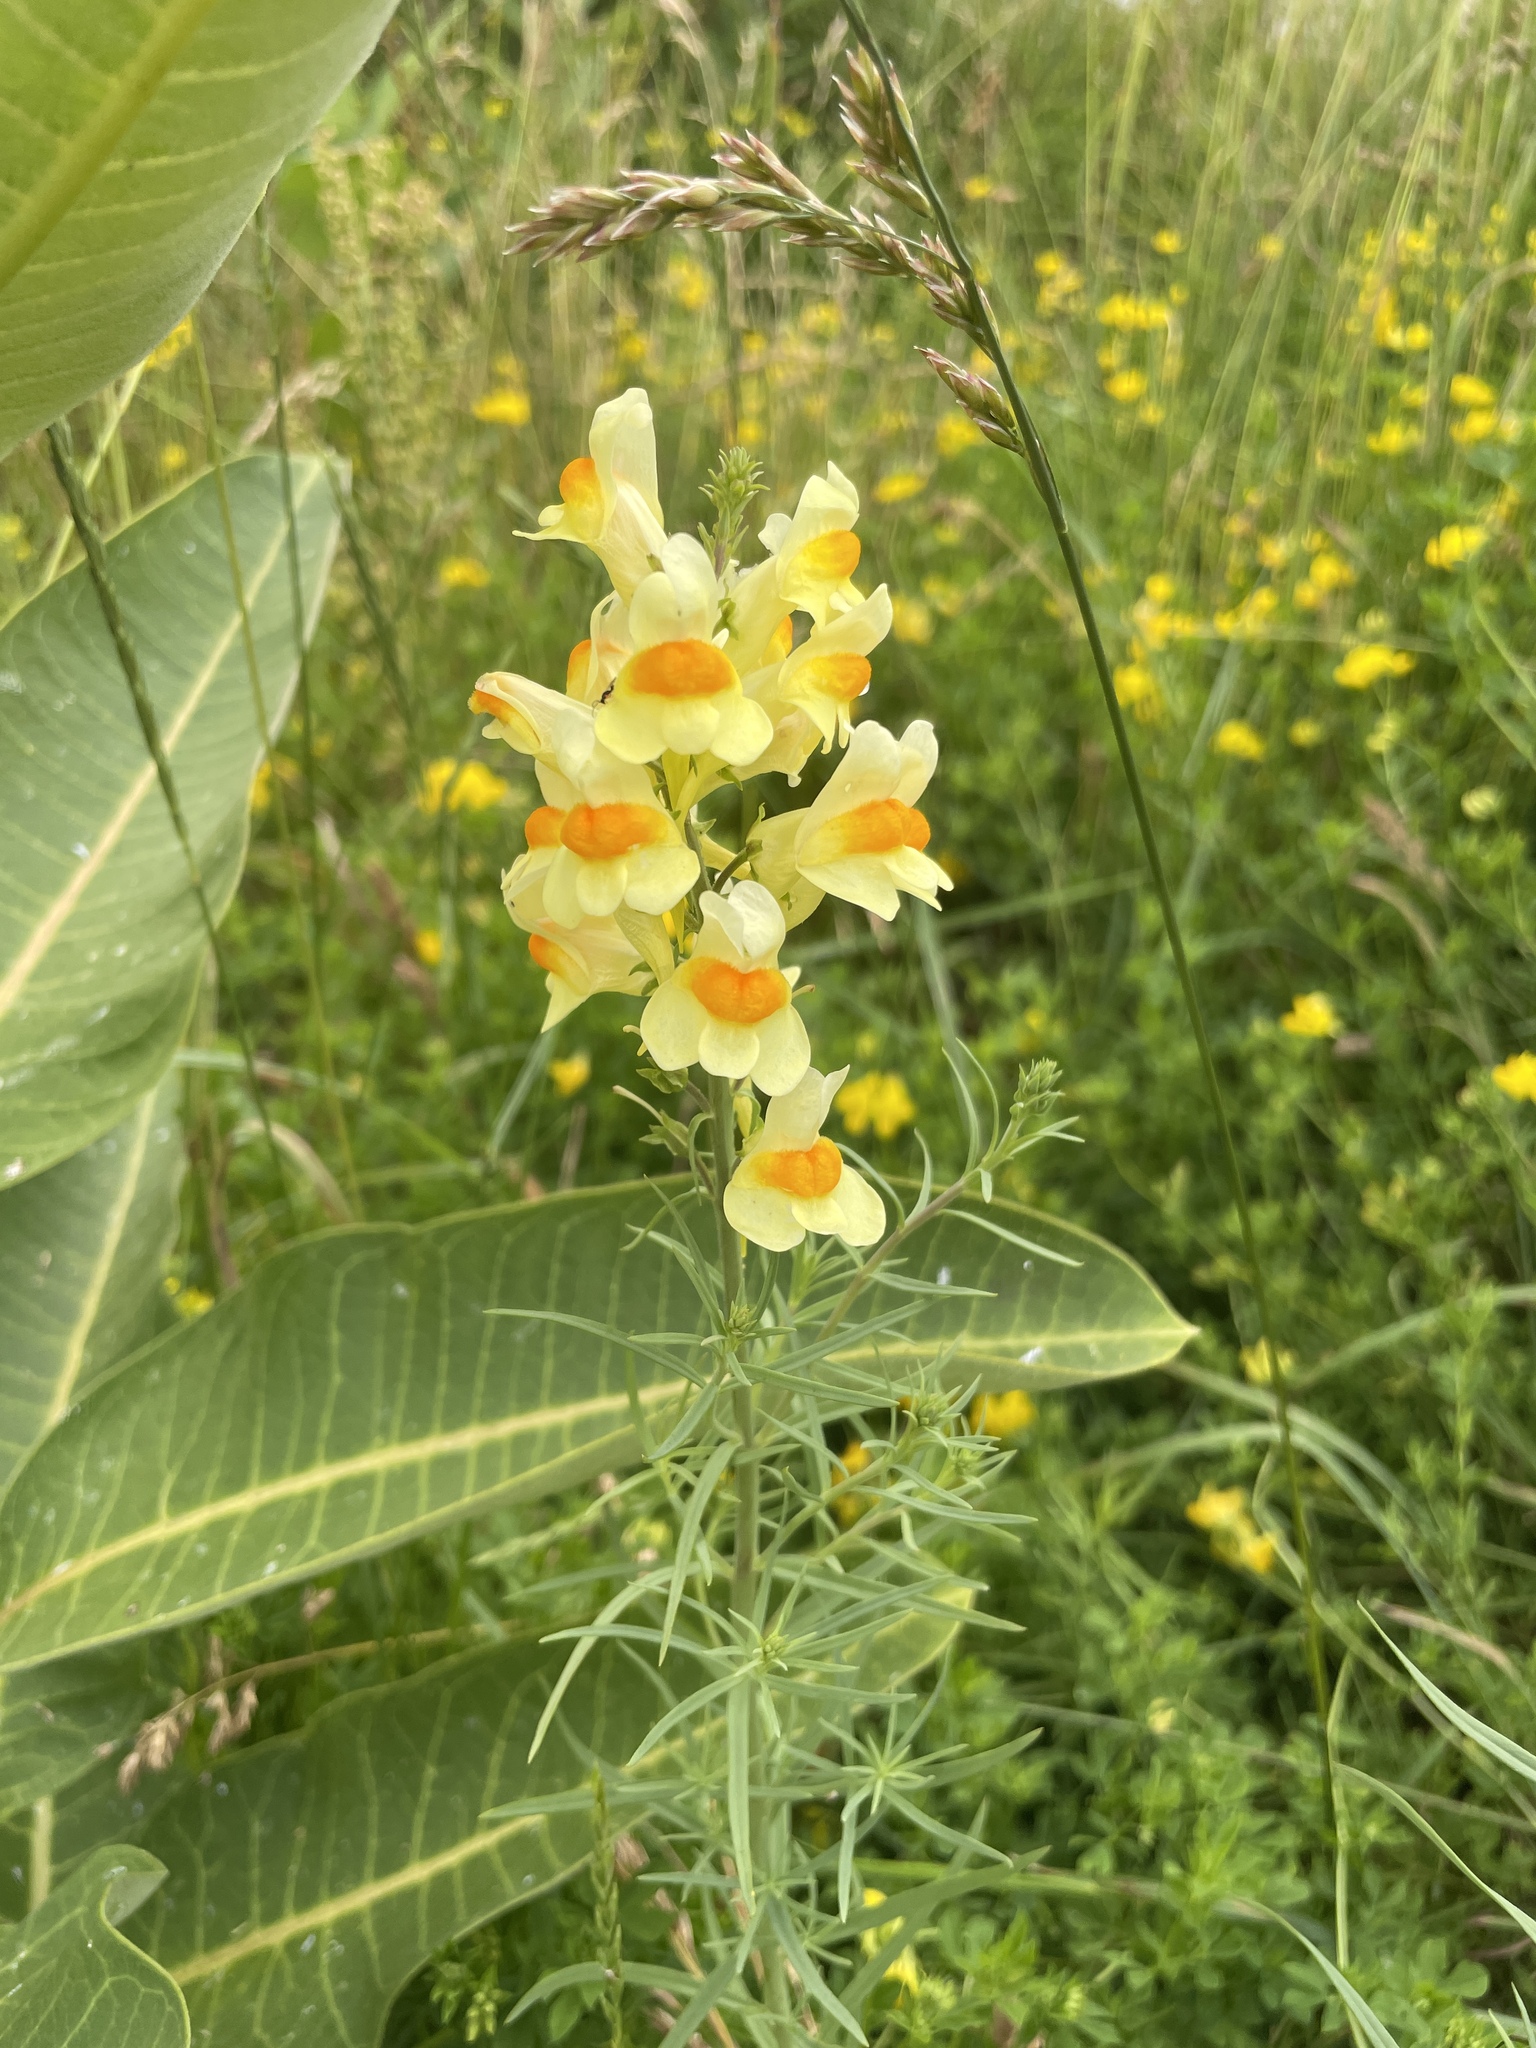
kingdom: Plantae
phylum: Tracheophyta
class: Magnoliopsida
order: Lamiales
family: Plantaginaceae
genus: Linaria
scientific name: Linaria vulgaris
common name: Butter and eggs
